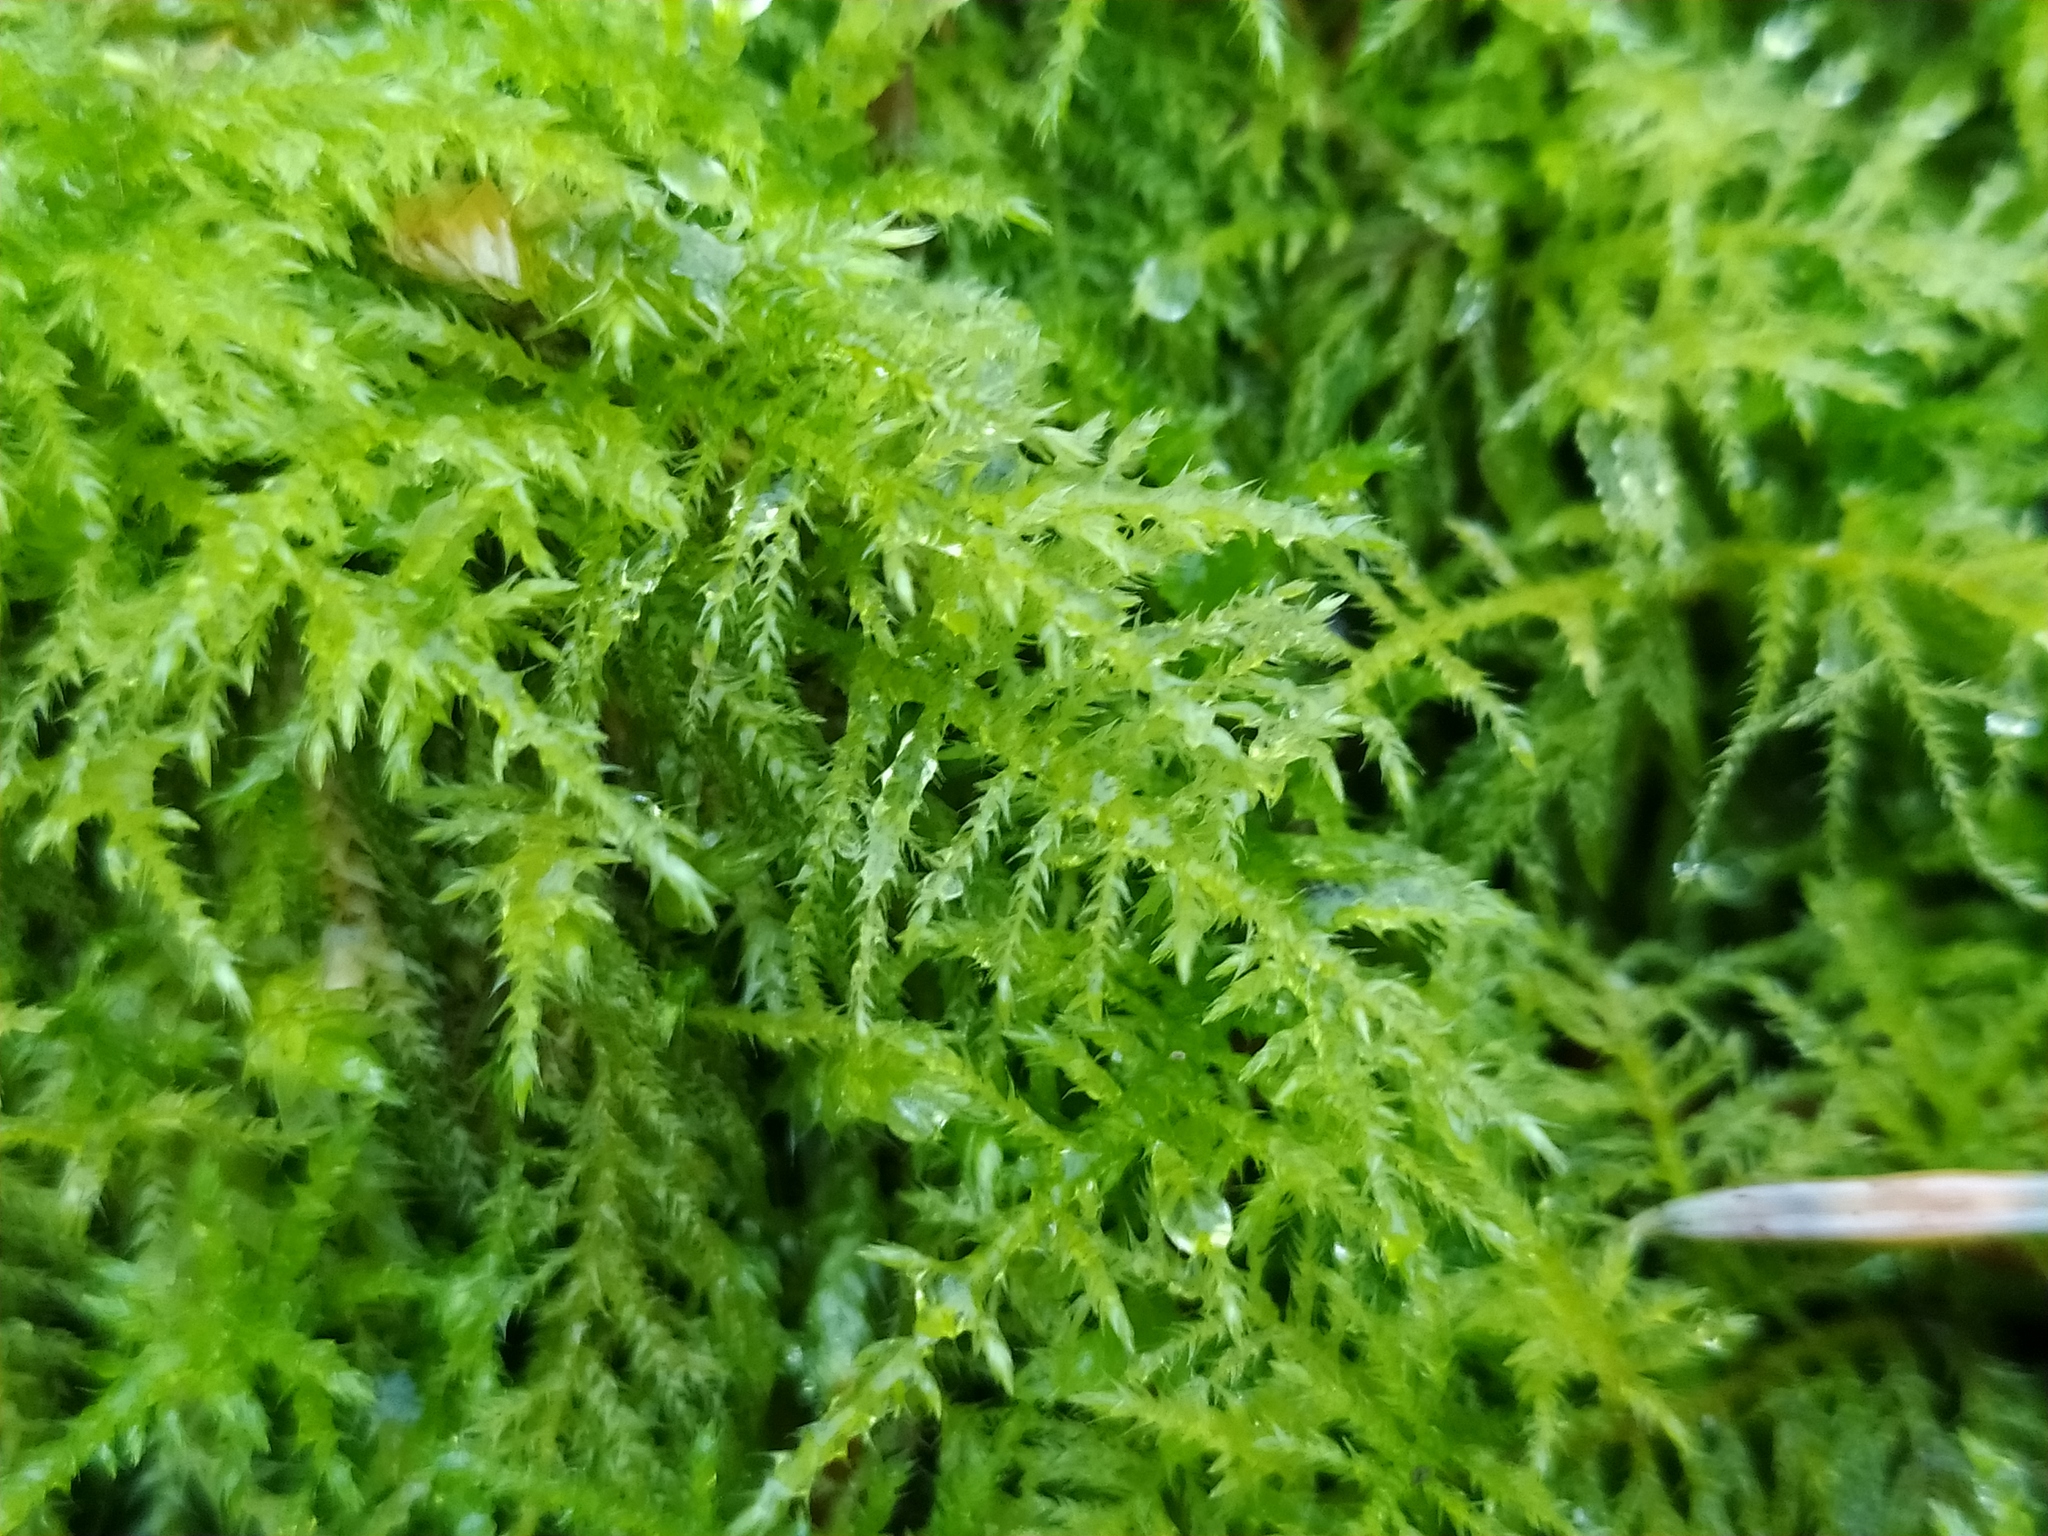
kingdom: Plantae
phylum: Bryophyta
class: Bryopsida
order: Hypnales
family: Brachytheciaceae
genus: Kindbergia
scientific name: Kindbergia praelonga
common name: Slender beaked moss
